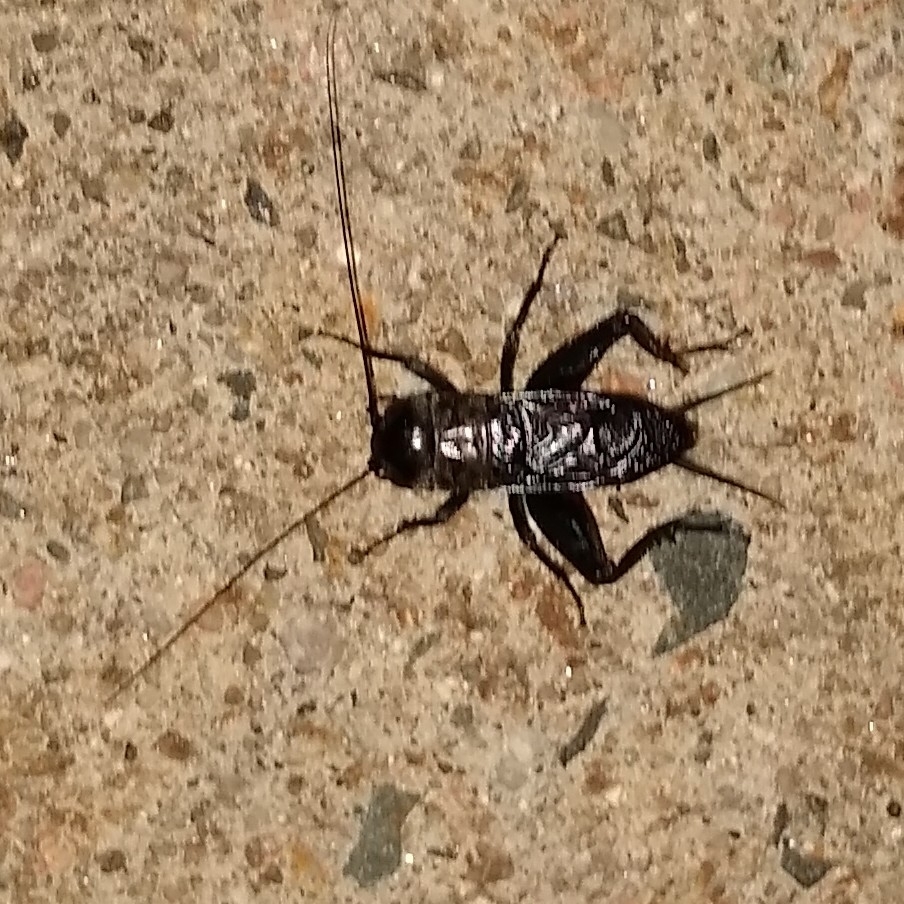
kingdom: Animalia
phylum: Arthropoda
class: Insecta
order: Orthoptera
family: Gryllidae
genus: Gryllus
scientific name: Gryllus veletis
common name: Spring field cricket
